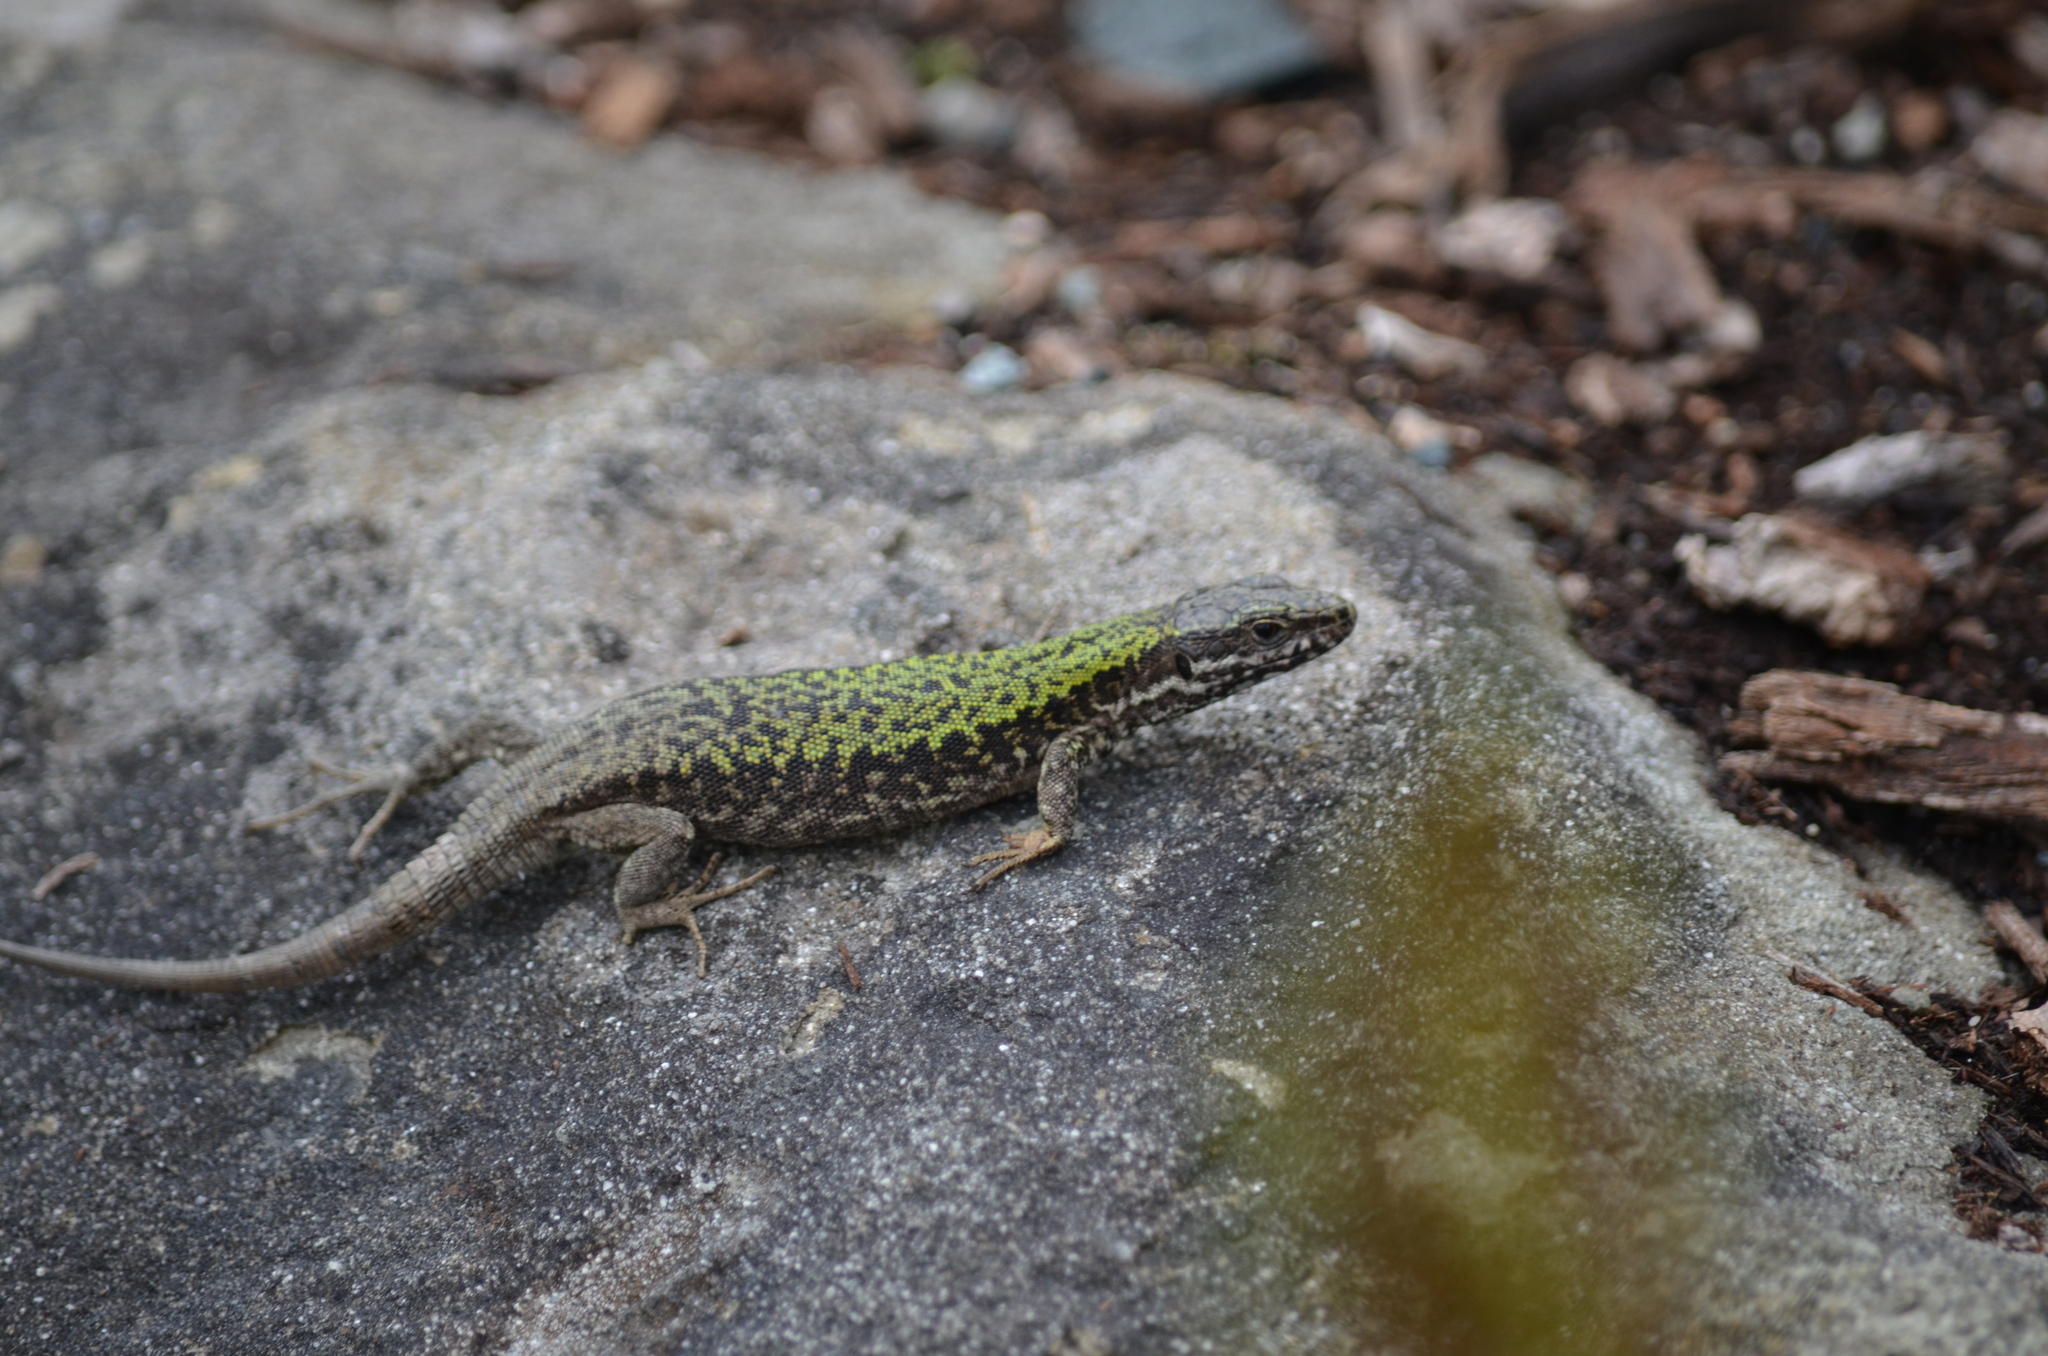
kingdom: Animalia
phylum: Chordata
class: Squamata
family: Lacertidae
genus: Podarcis
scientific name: Podarcis muralis
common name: Common wall lizard
